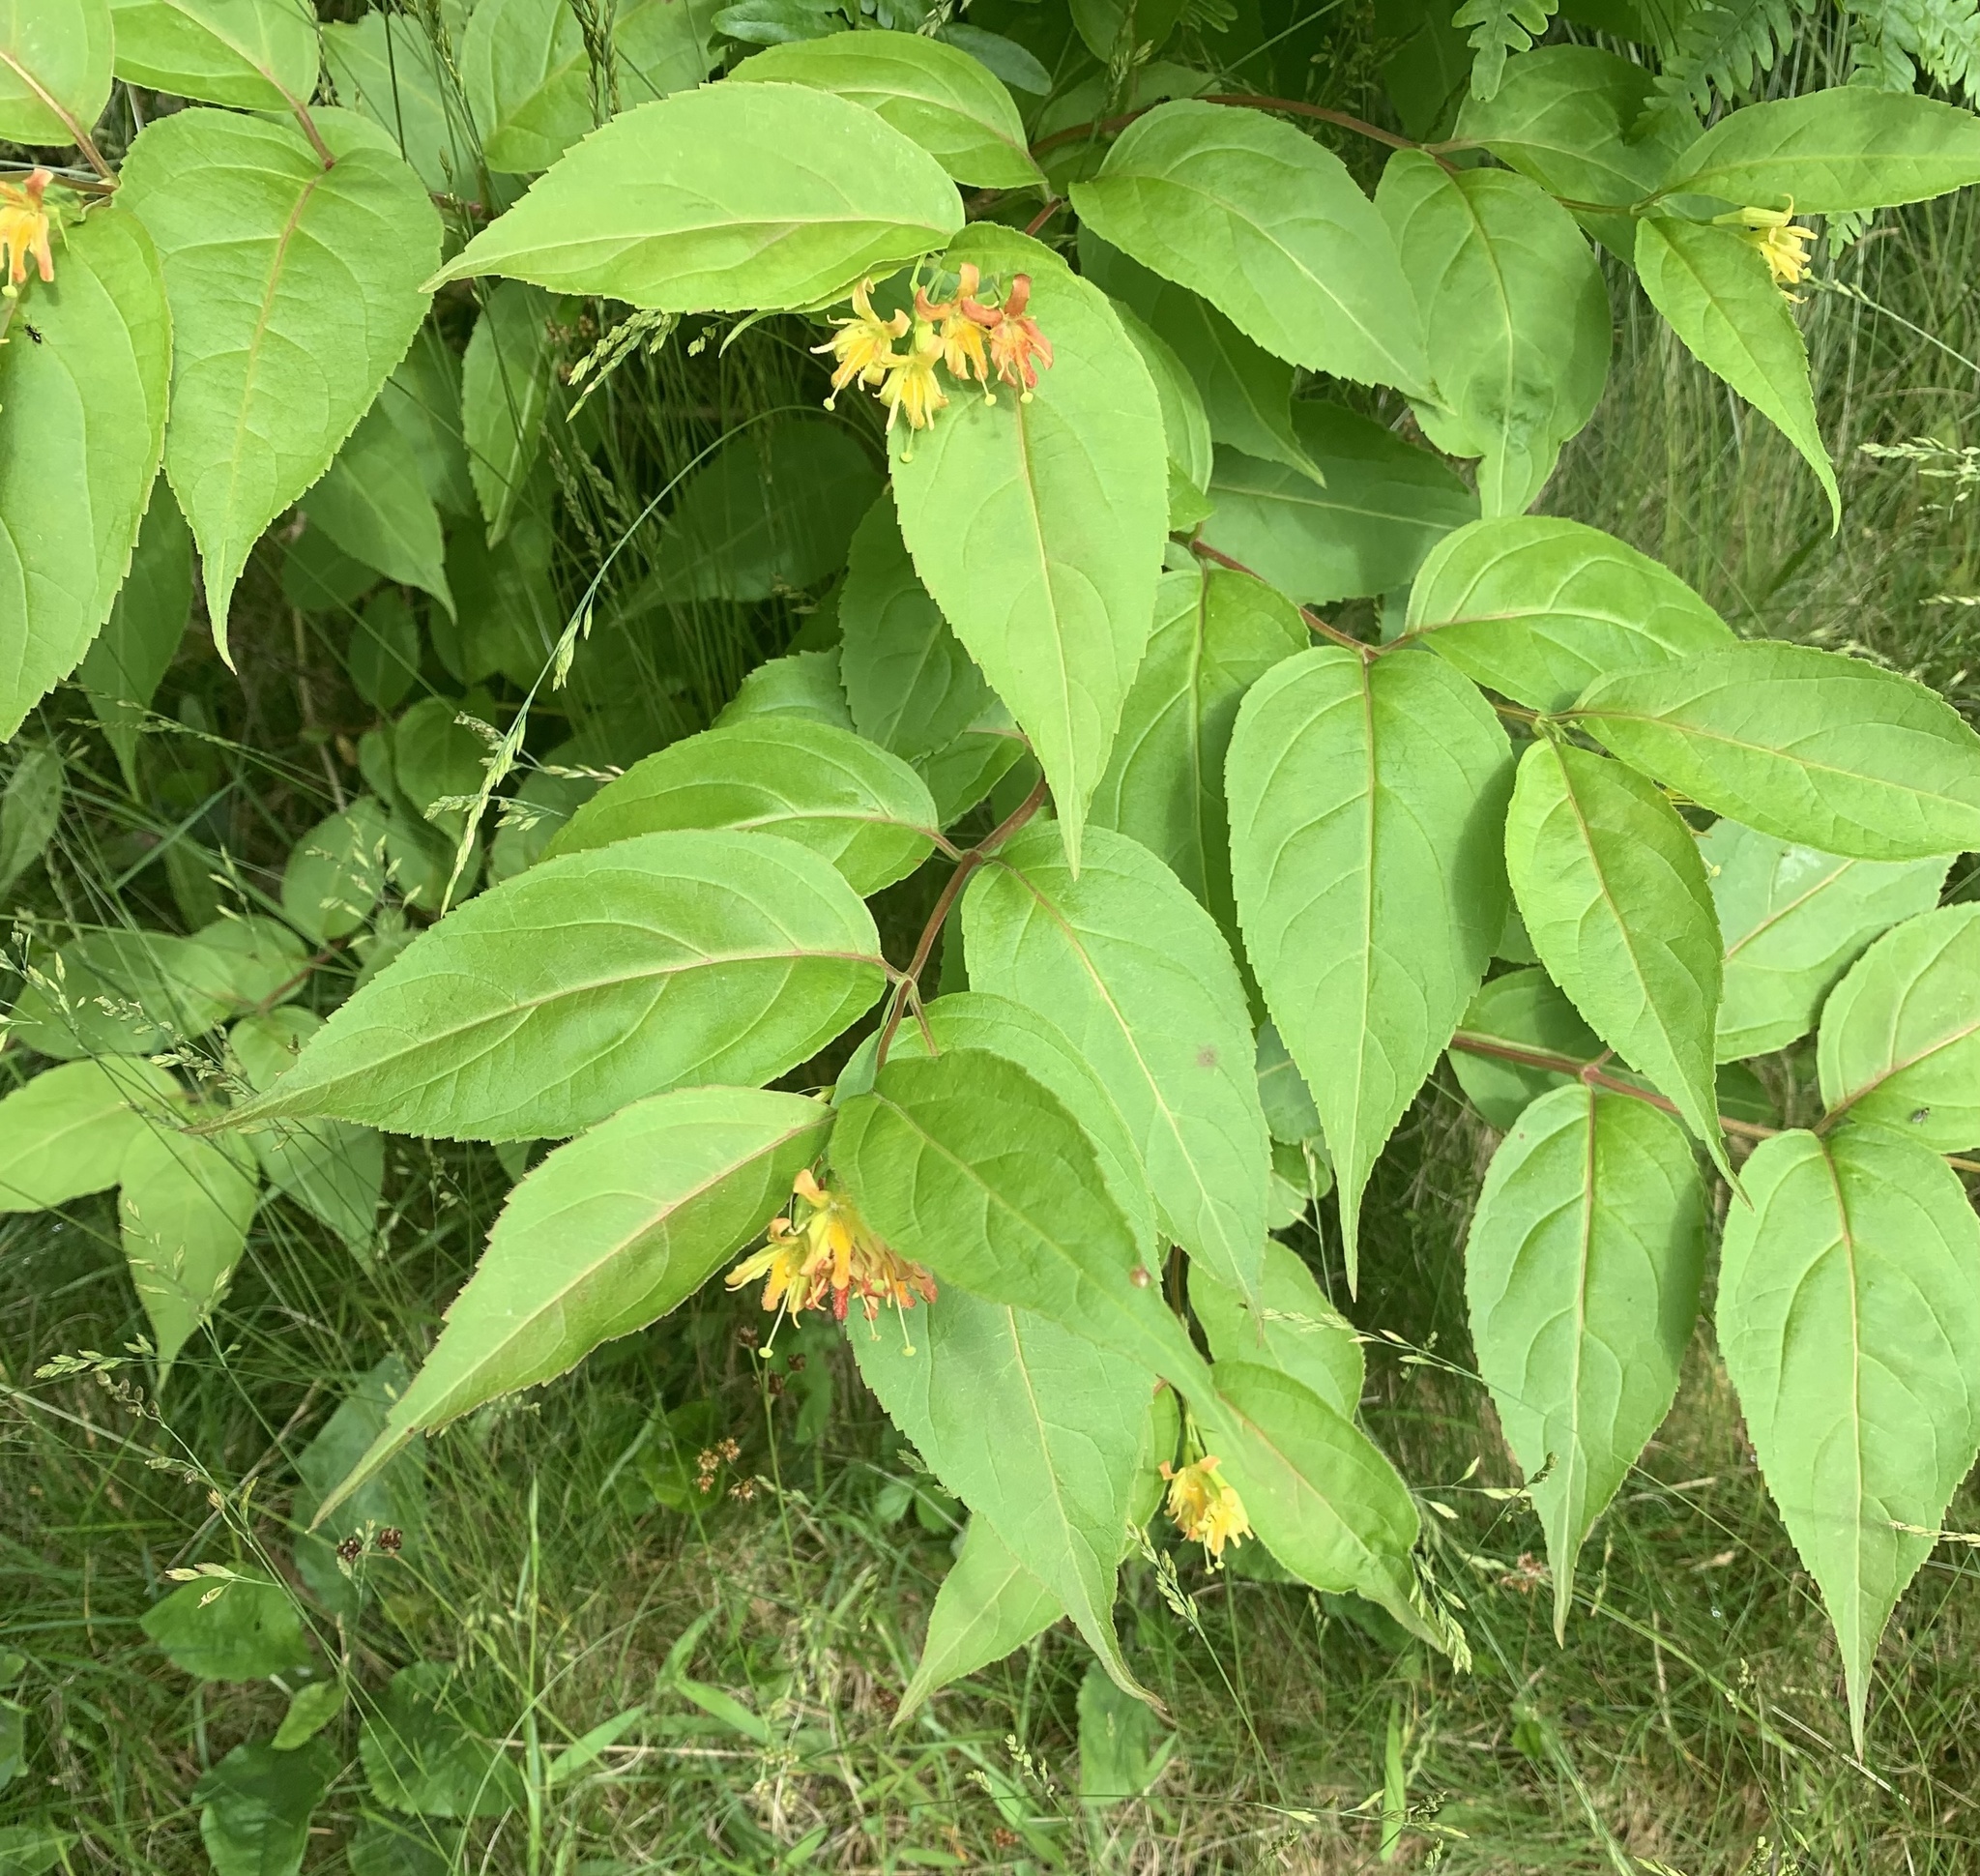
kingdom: Plantae
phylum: Tracheophyta
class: Magnoliopsida
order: Dipsacales
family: Caprifoliaceae
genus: Diervilla
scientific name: Diervilla lonicera
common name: Bush-honeysuckle
